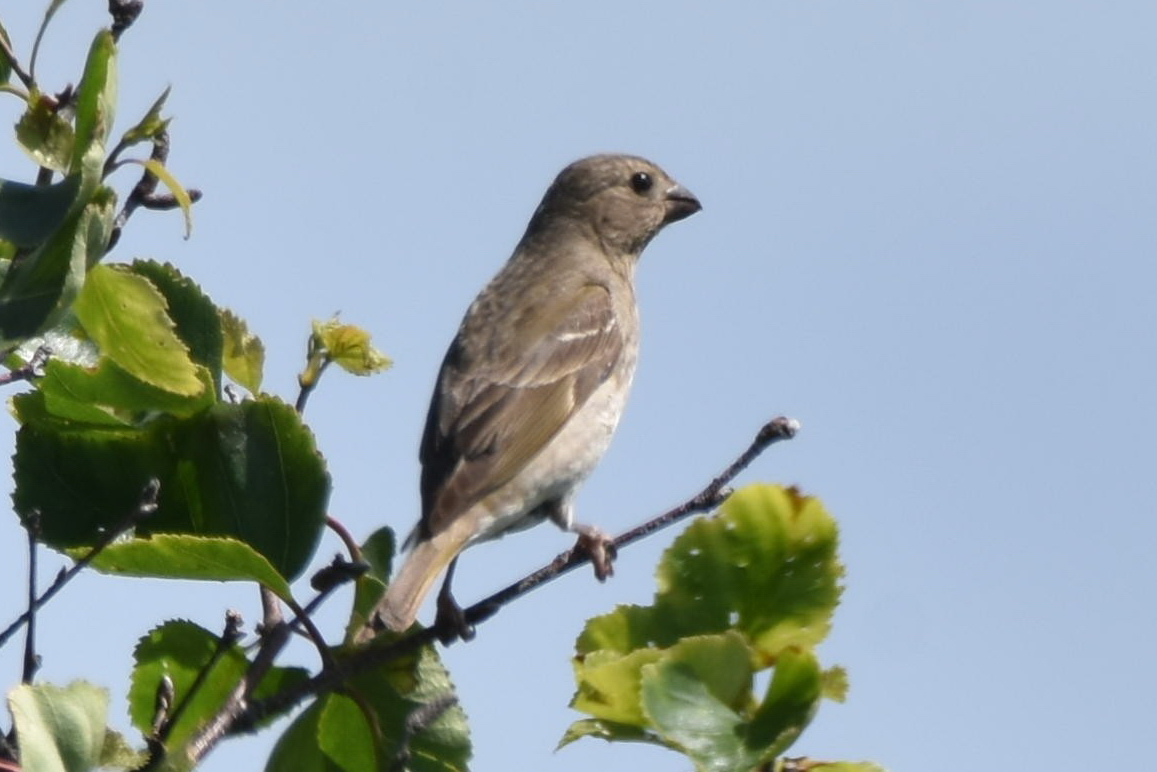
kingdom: Animalia
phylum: Chordata
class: Aves
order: Passeriformes
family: Fringillidae
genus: Carpodacus
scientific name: Carpodacus erythrinus
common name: Common rosefinch
